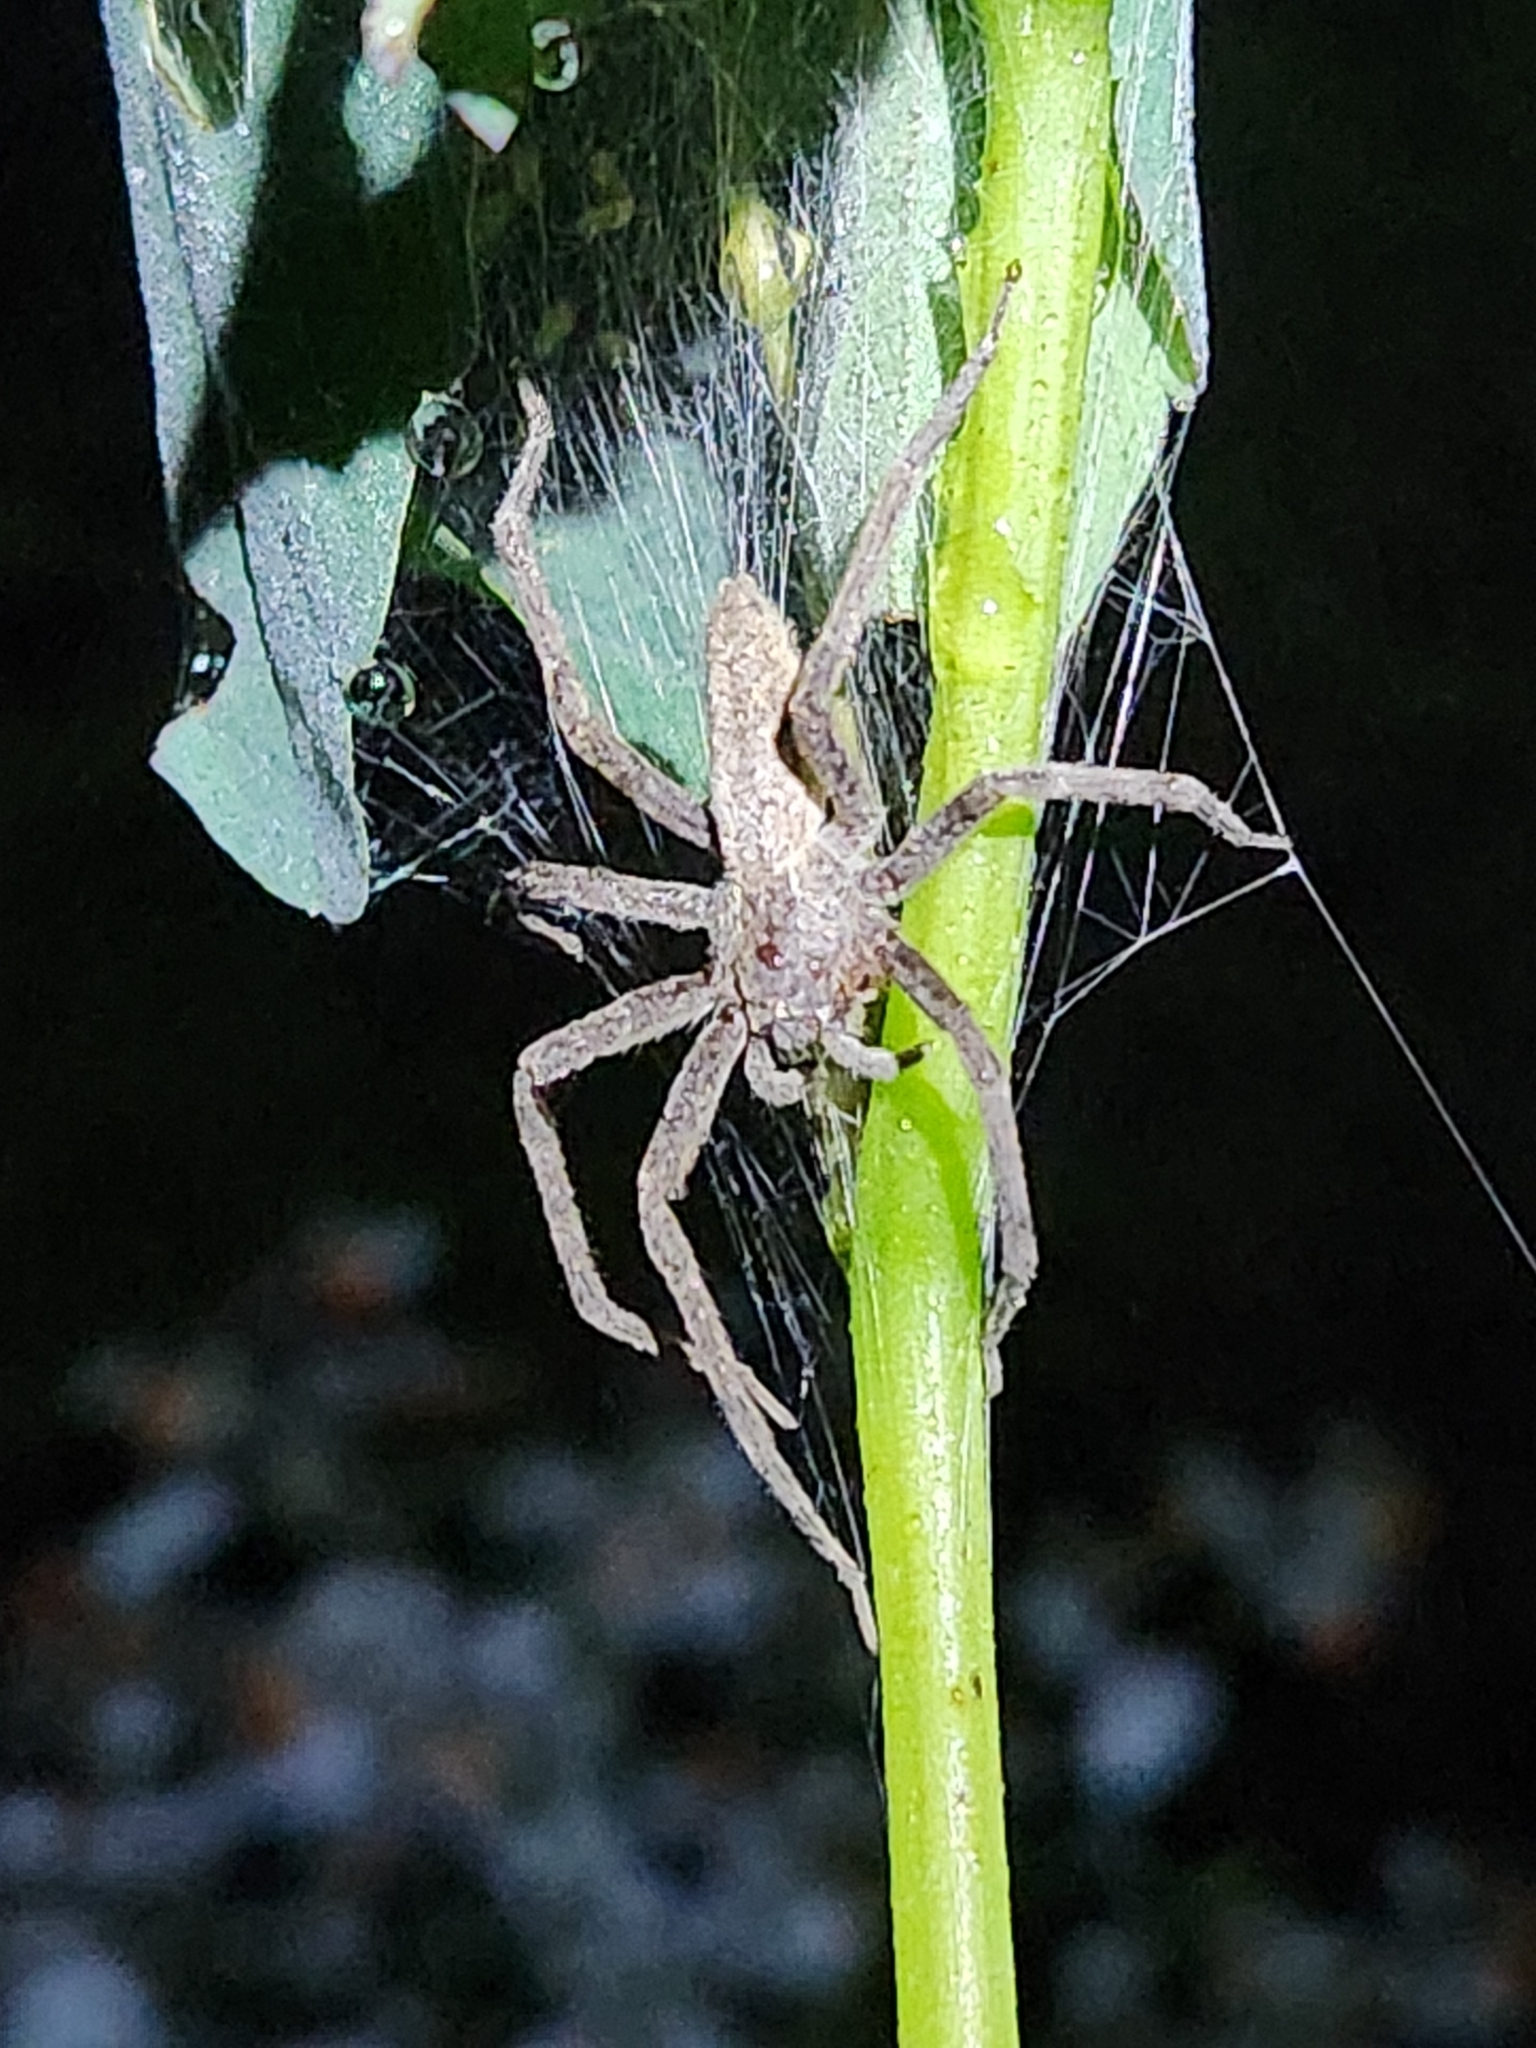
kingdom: Animalia
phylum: Arthropoda
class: Arachnida
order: Araneae
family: Pisauridae
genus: Pisaurina
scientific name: Pisaurina mira
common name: American nursery web spider
